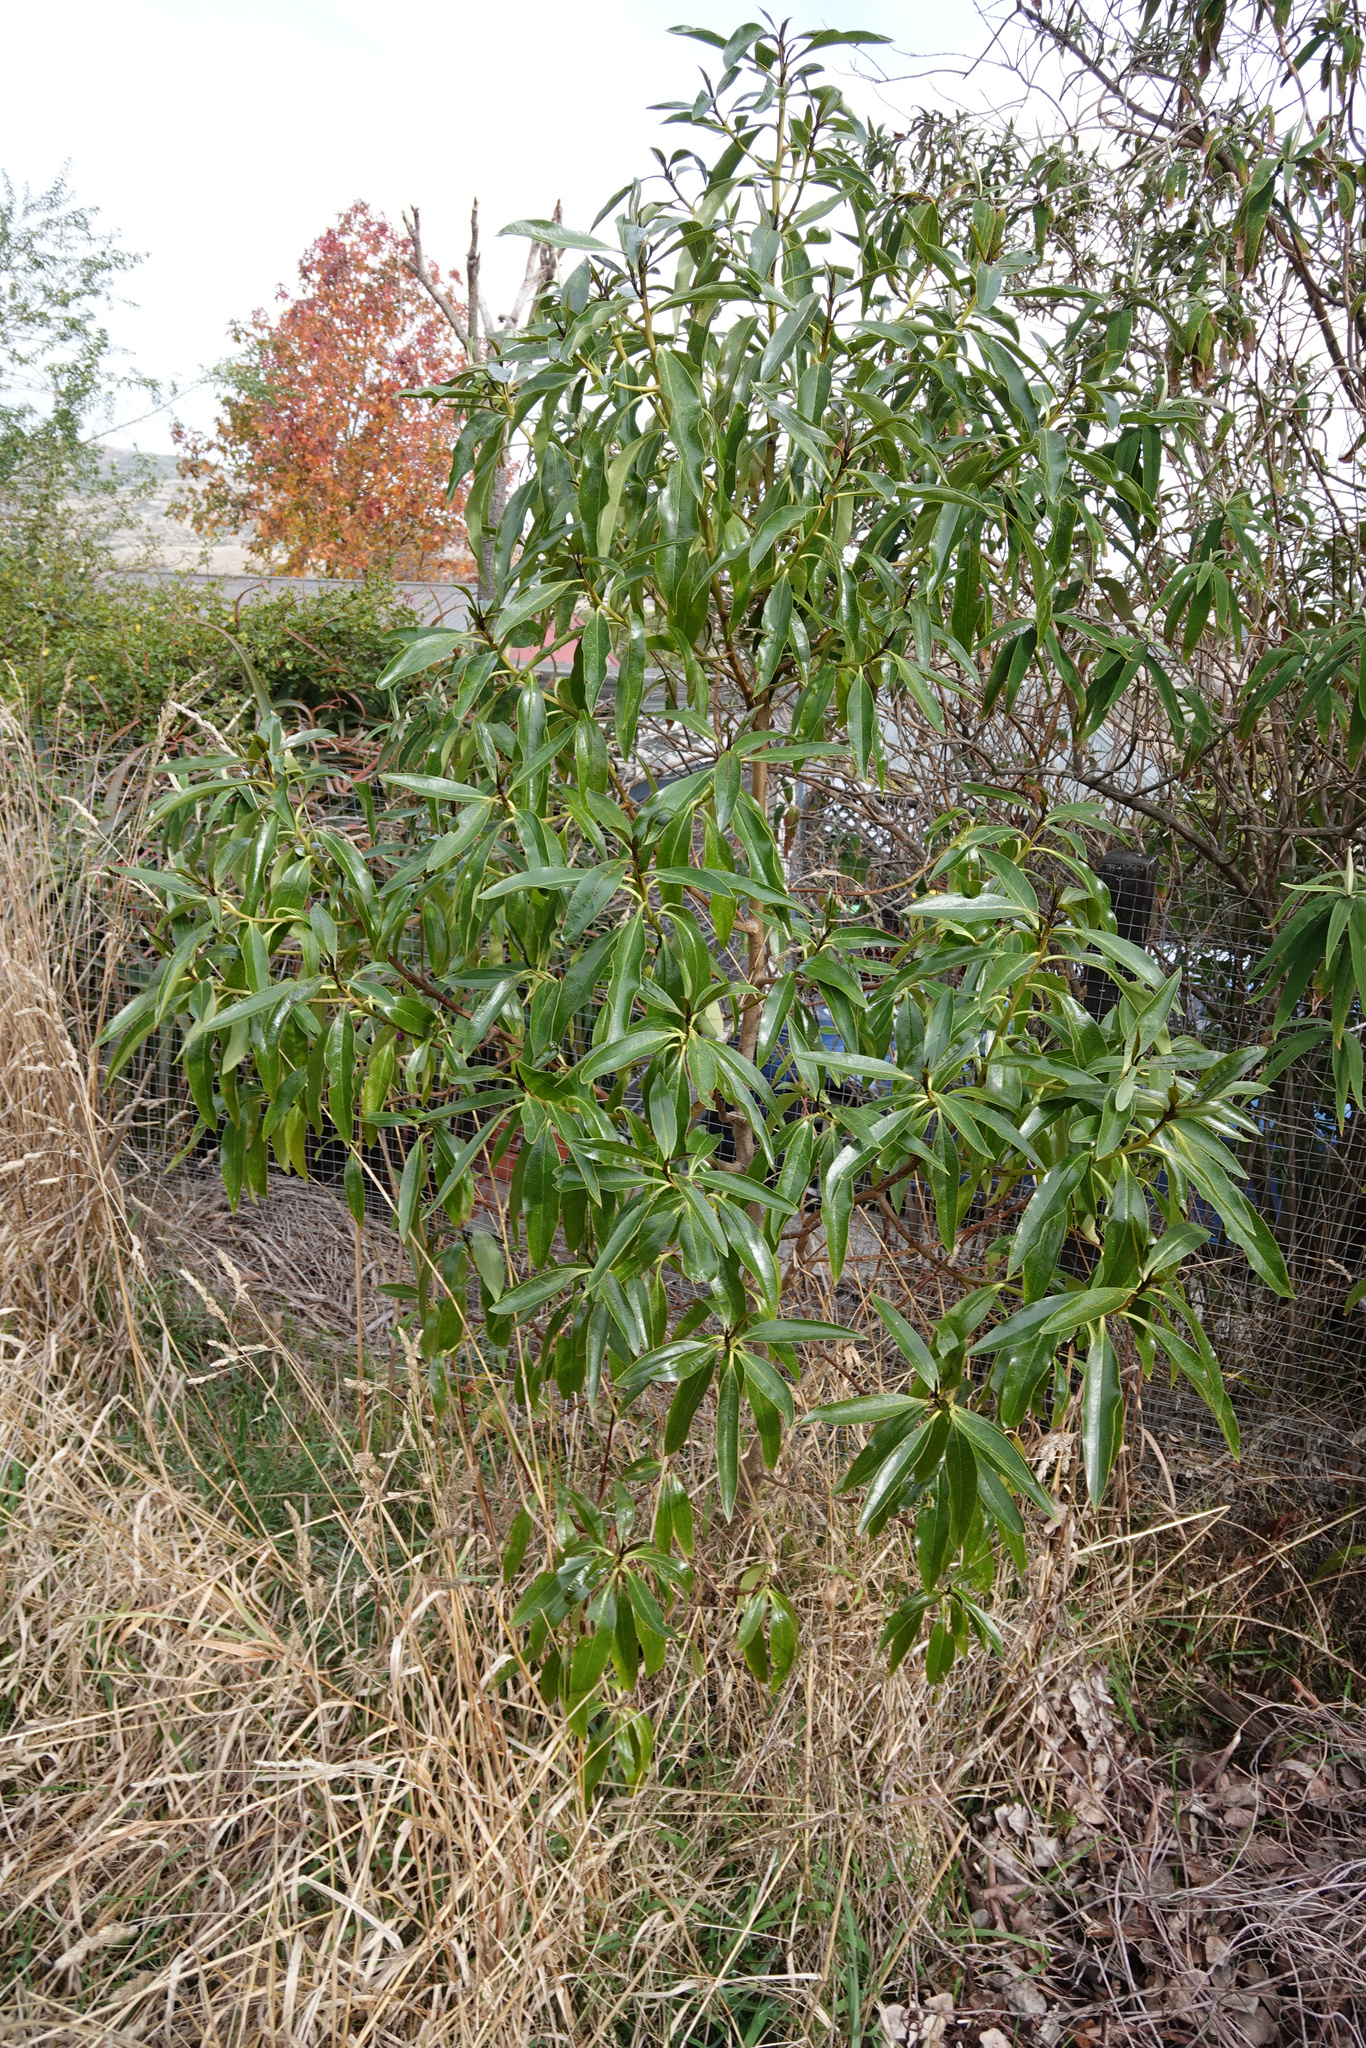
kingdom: Plantae
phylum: Tracheophyta
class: Magnoliopsida
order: Lamiales
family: Scrophulariaceae
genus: Myoporum
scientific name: Myoporum laetum
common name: Ngaio tree
